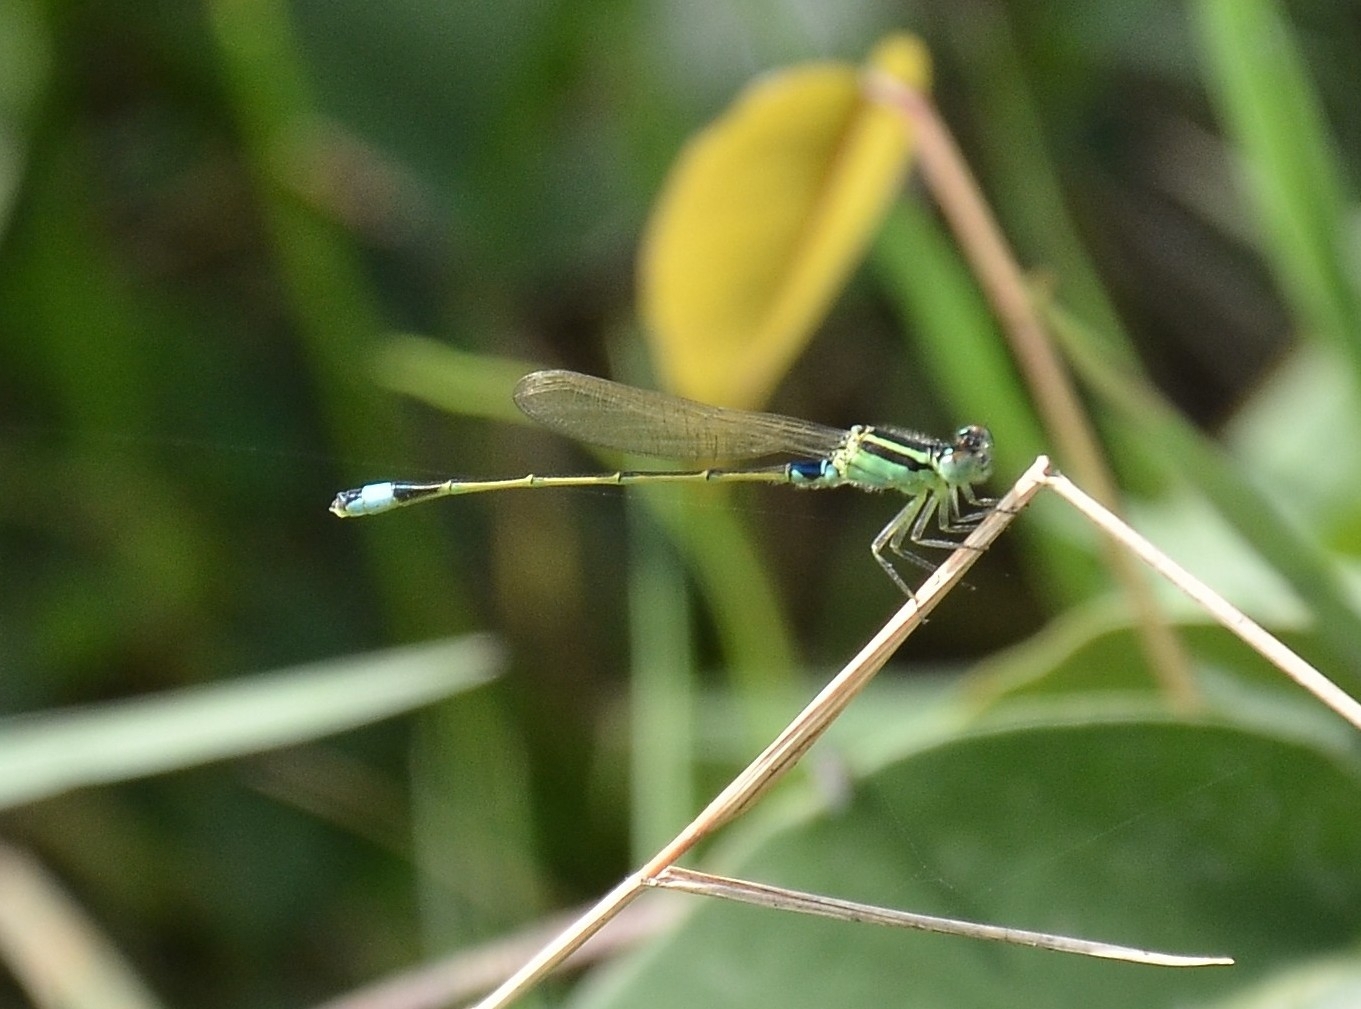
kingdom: Animalia
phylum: Arthropoda
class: Insecta
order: Odonata
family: Coenagrionidae
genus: Ischnura
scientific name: Ischnura senegalensis
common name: Tropical bluetail
